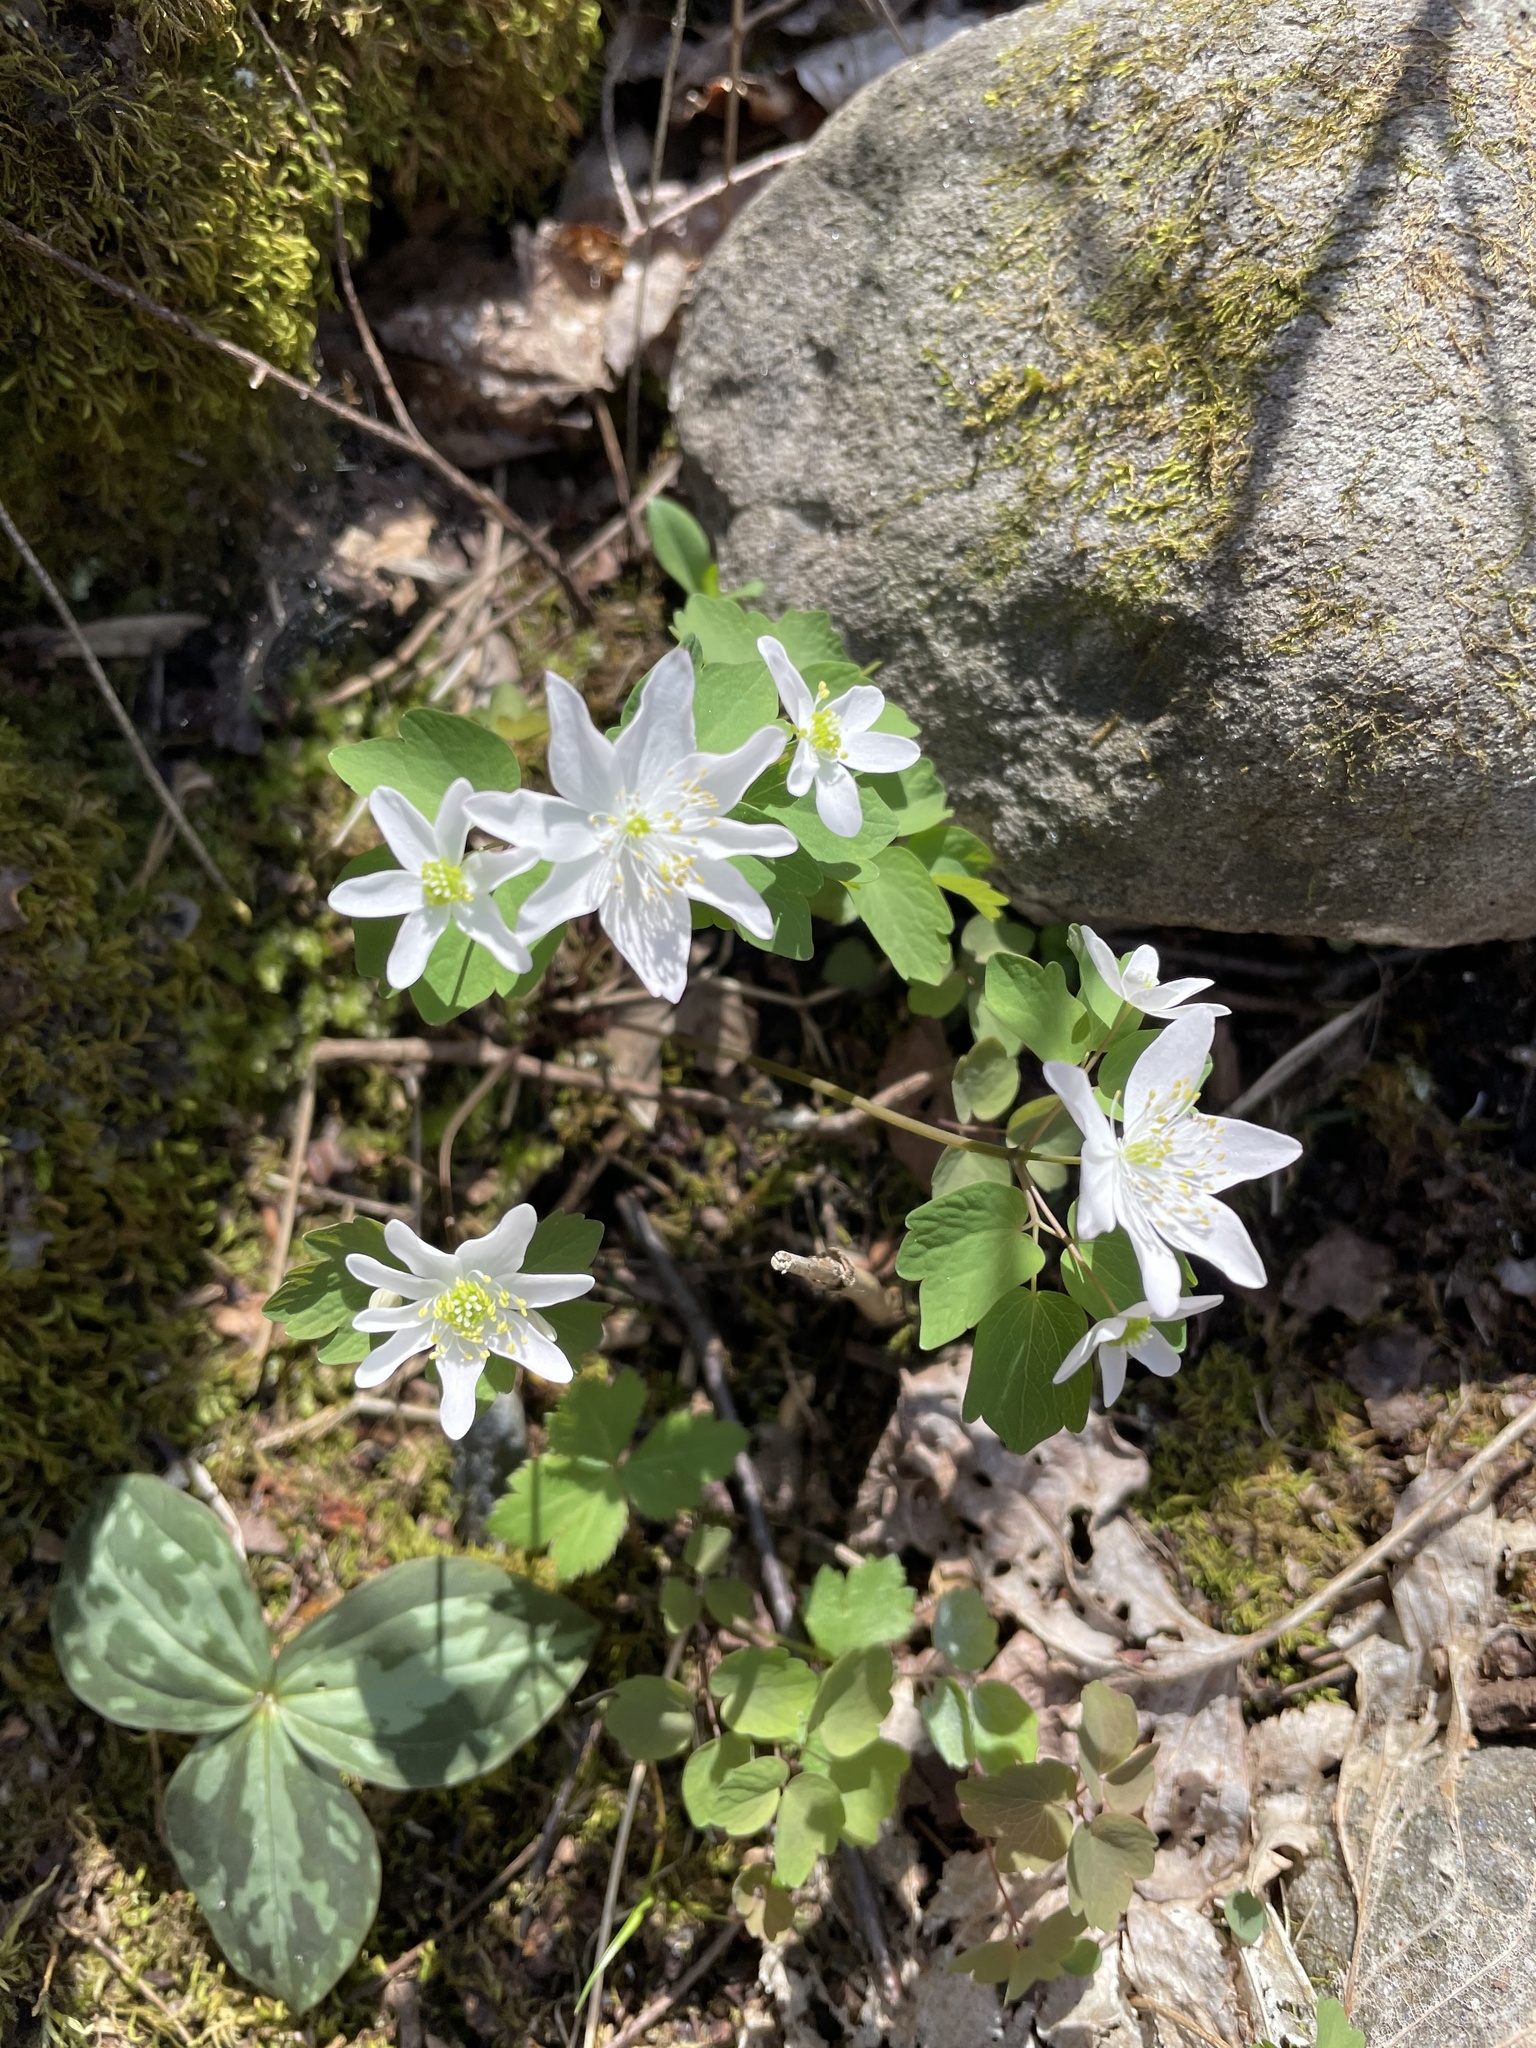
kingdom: Plantae
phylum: Tracheophyta
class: Magnoliopsida
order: Ranunculales
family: Ranunculaceae
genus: Thalictrum
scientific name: Thalictrum thalictroides
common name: Rue-anemone
